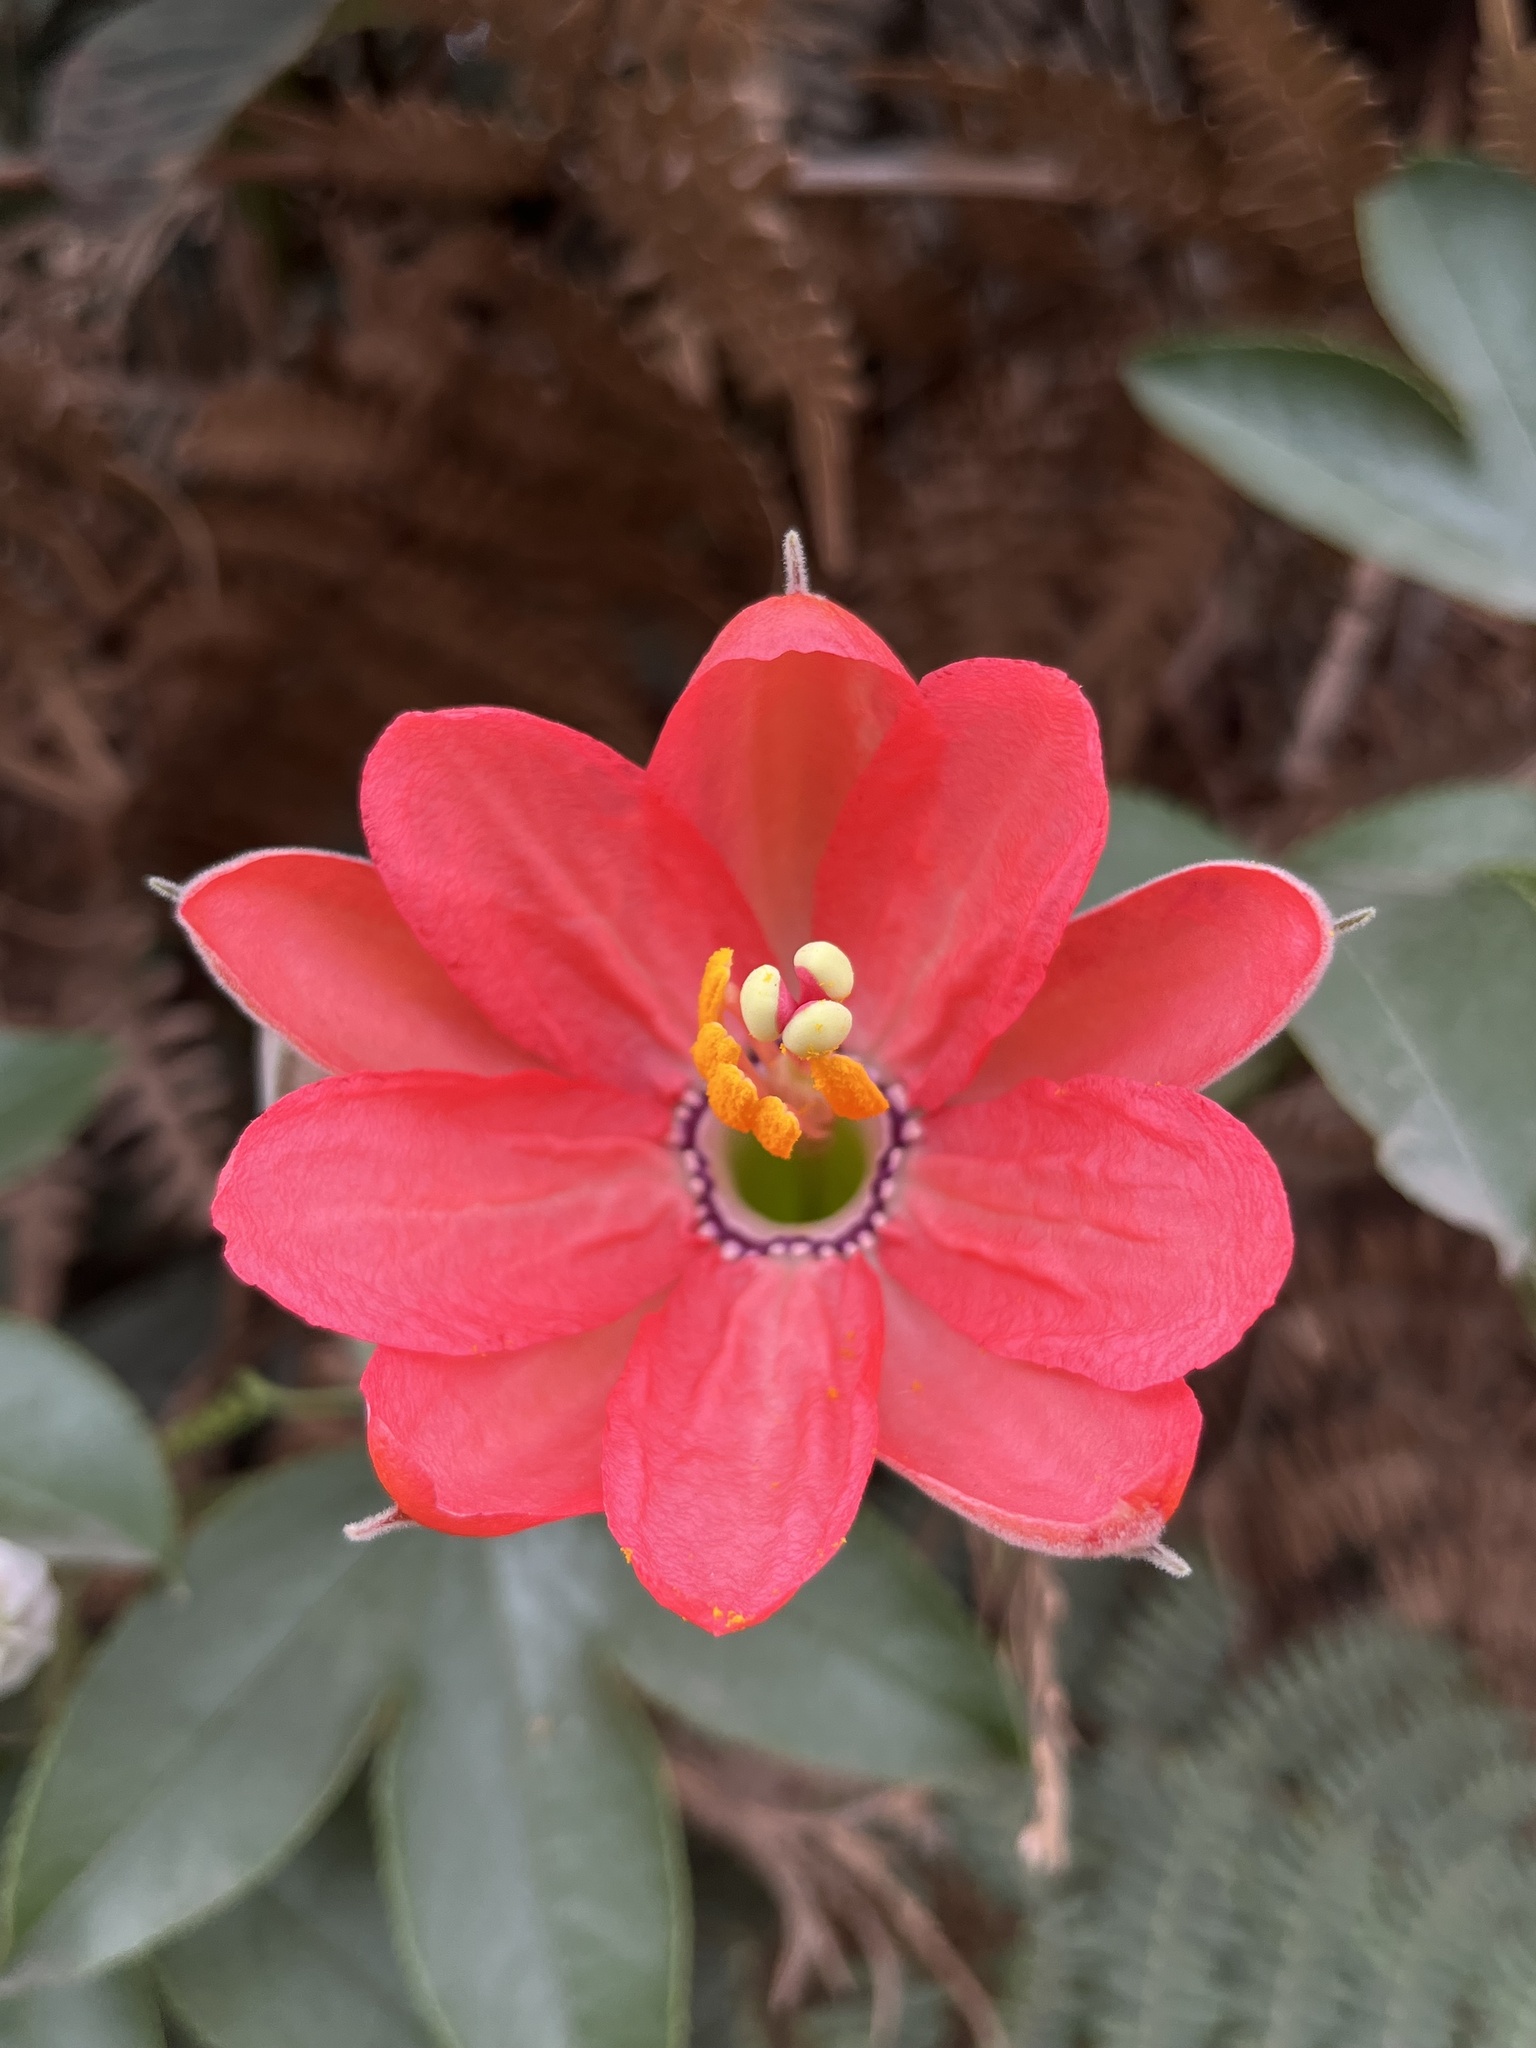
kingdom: Plantae
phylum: Tracheophyta
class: Magnoliopsida
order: Malpighiales
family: Passifloraceae
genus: Passiflora
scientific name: Passiflora mixta
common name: Passion flower
